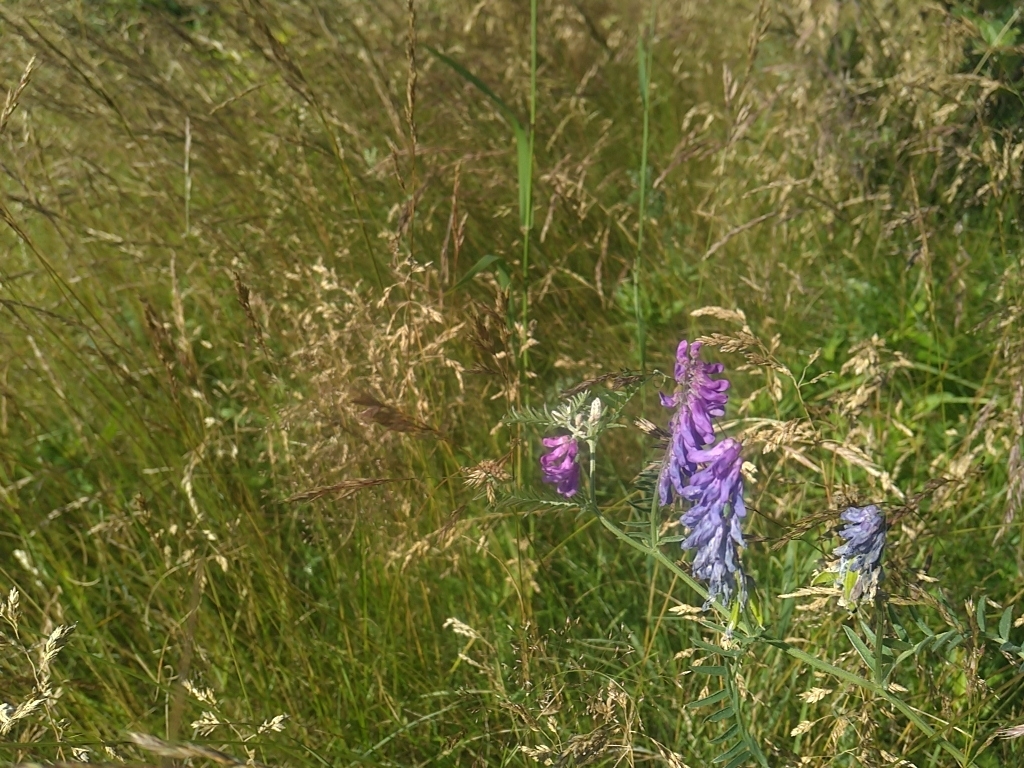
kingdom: Plantae
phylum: Tracheophyta
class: Magnoliopsida
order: Fabales
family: Fabaceae
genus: Vicia
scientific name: Vicia cracca
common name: Bird vetch
